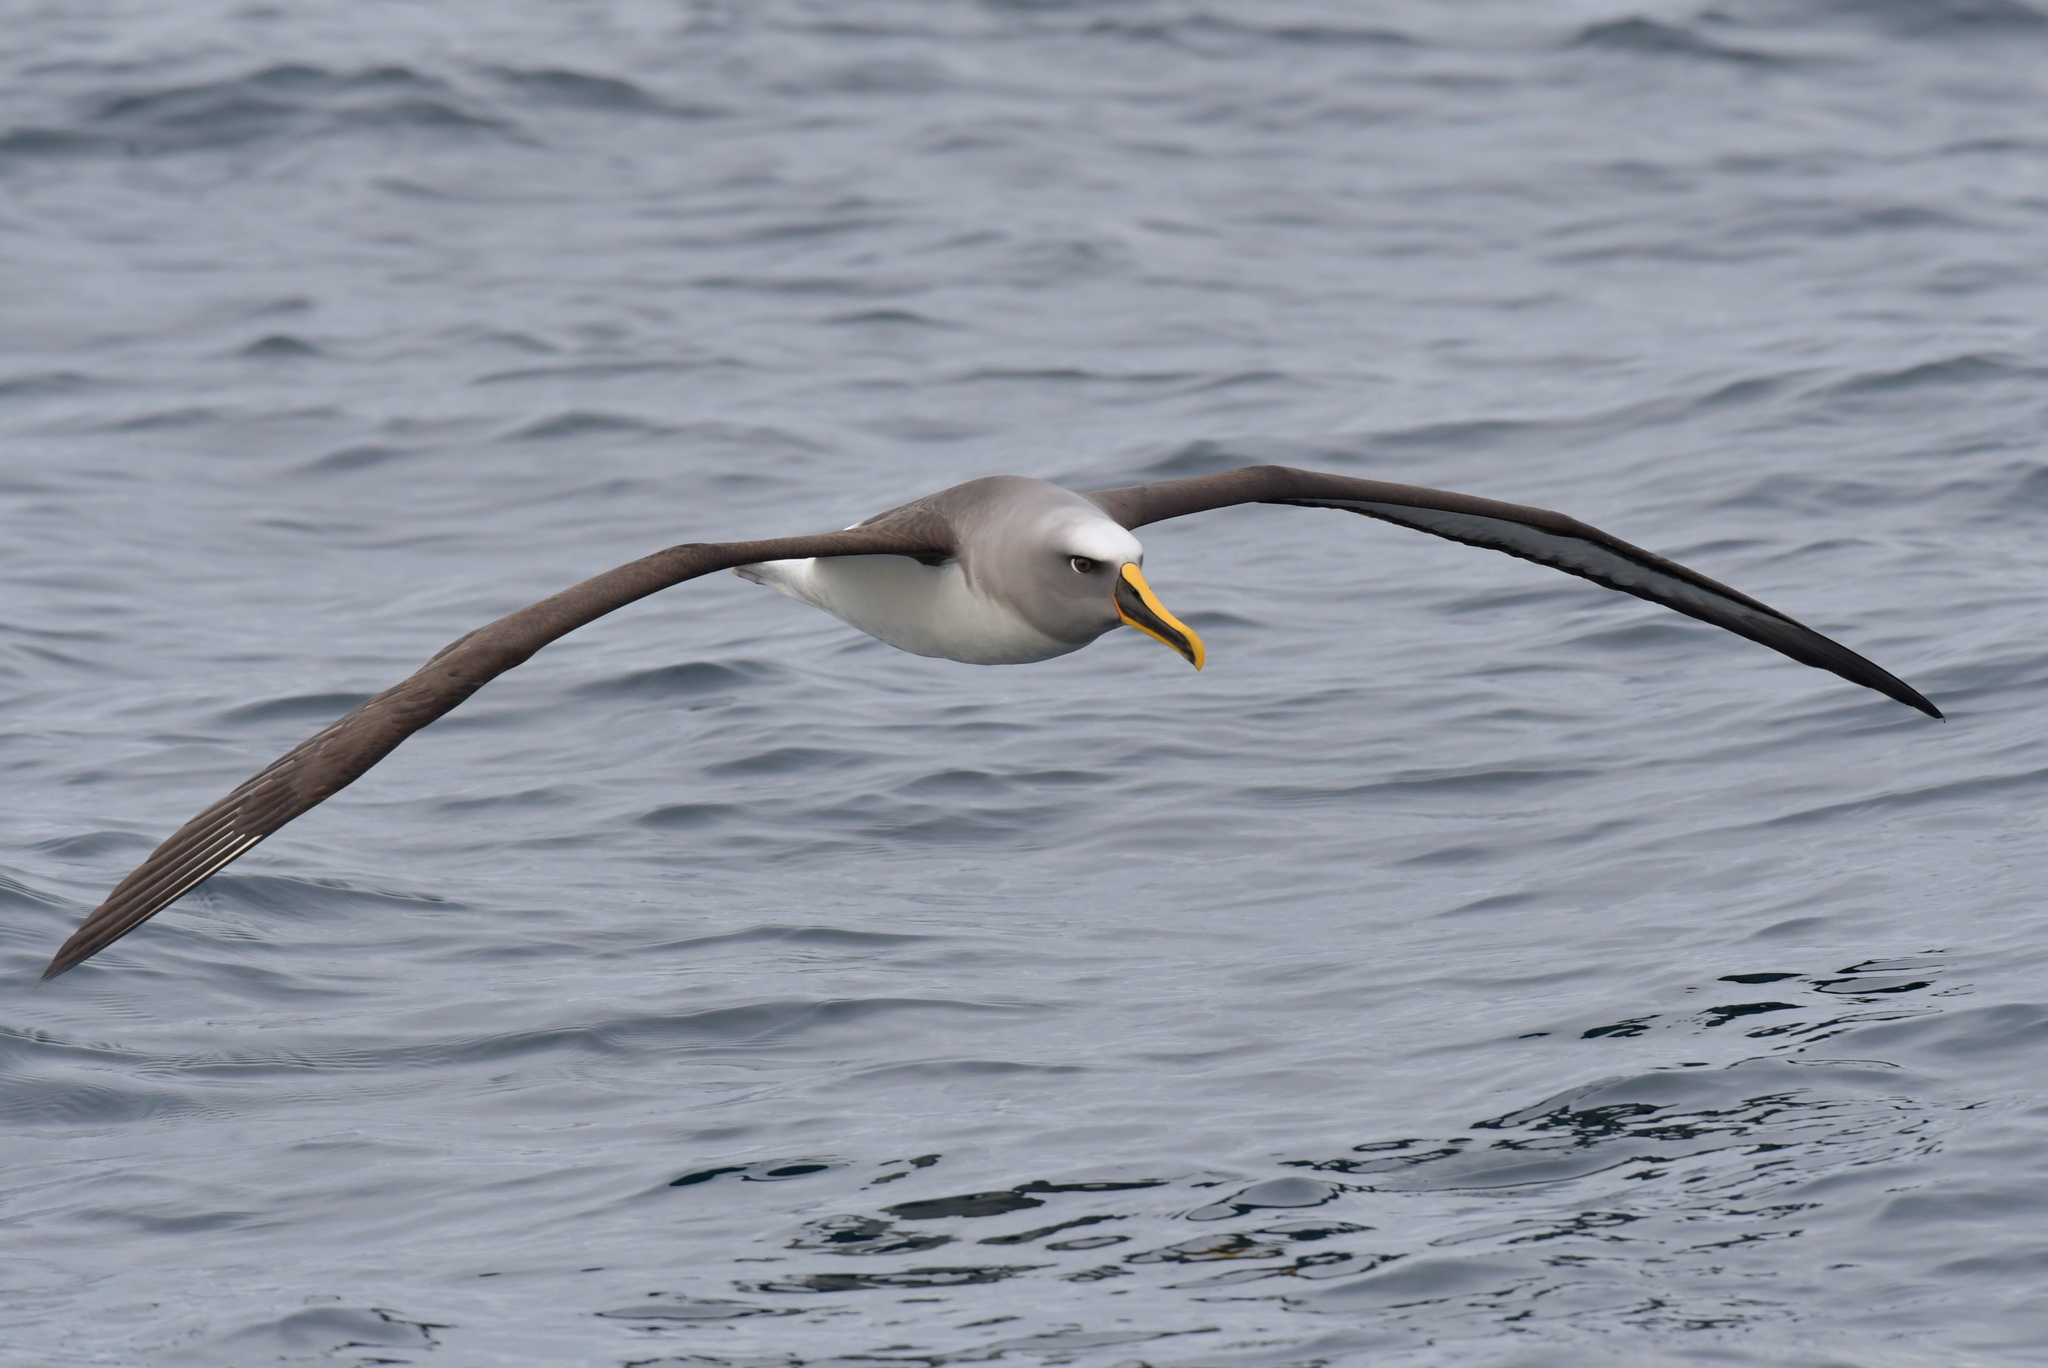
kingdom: Animalia
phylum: Chordata
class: Aves
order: Procellariiformes
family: Diomedeidae
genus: Thalassarche
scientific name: Thalassarche bulleri
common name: Buller's albatross
